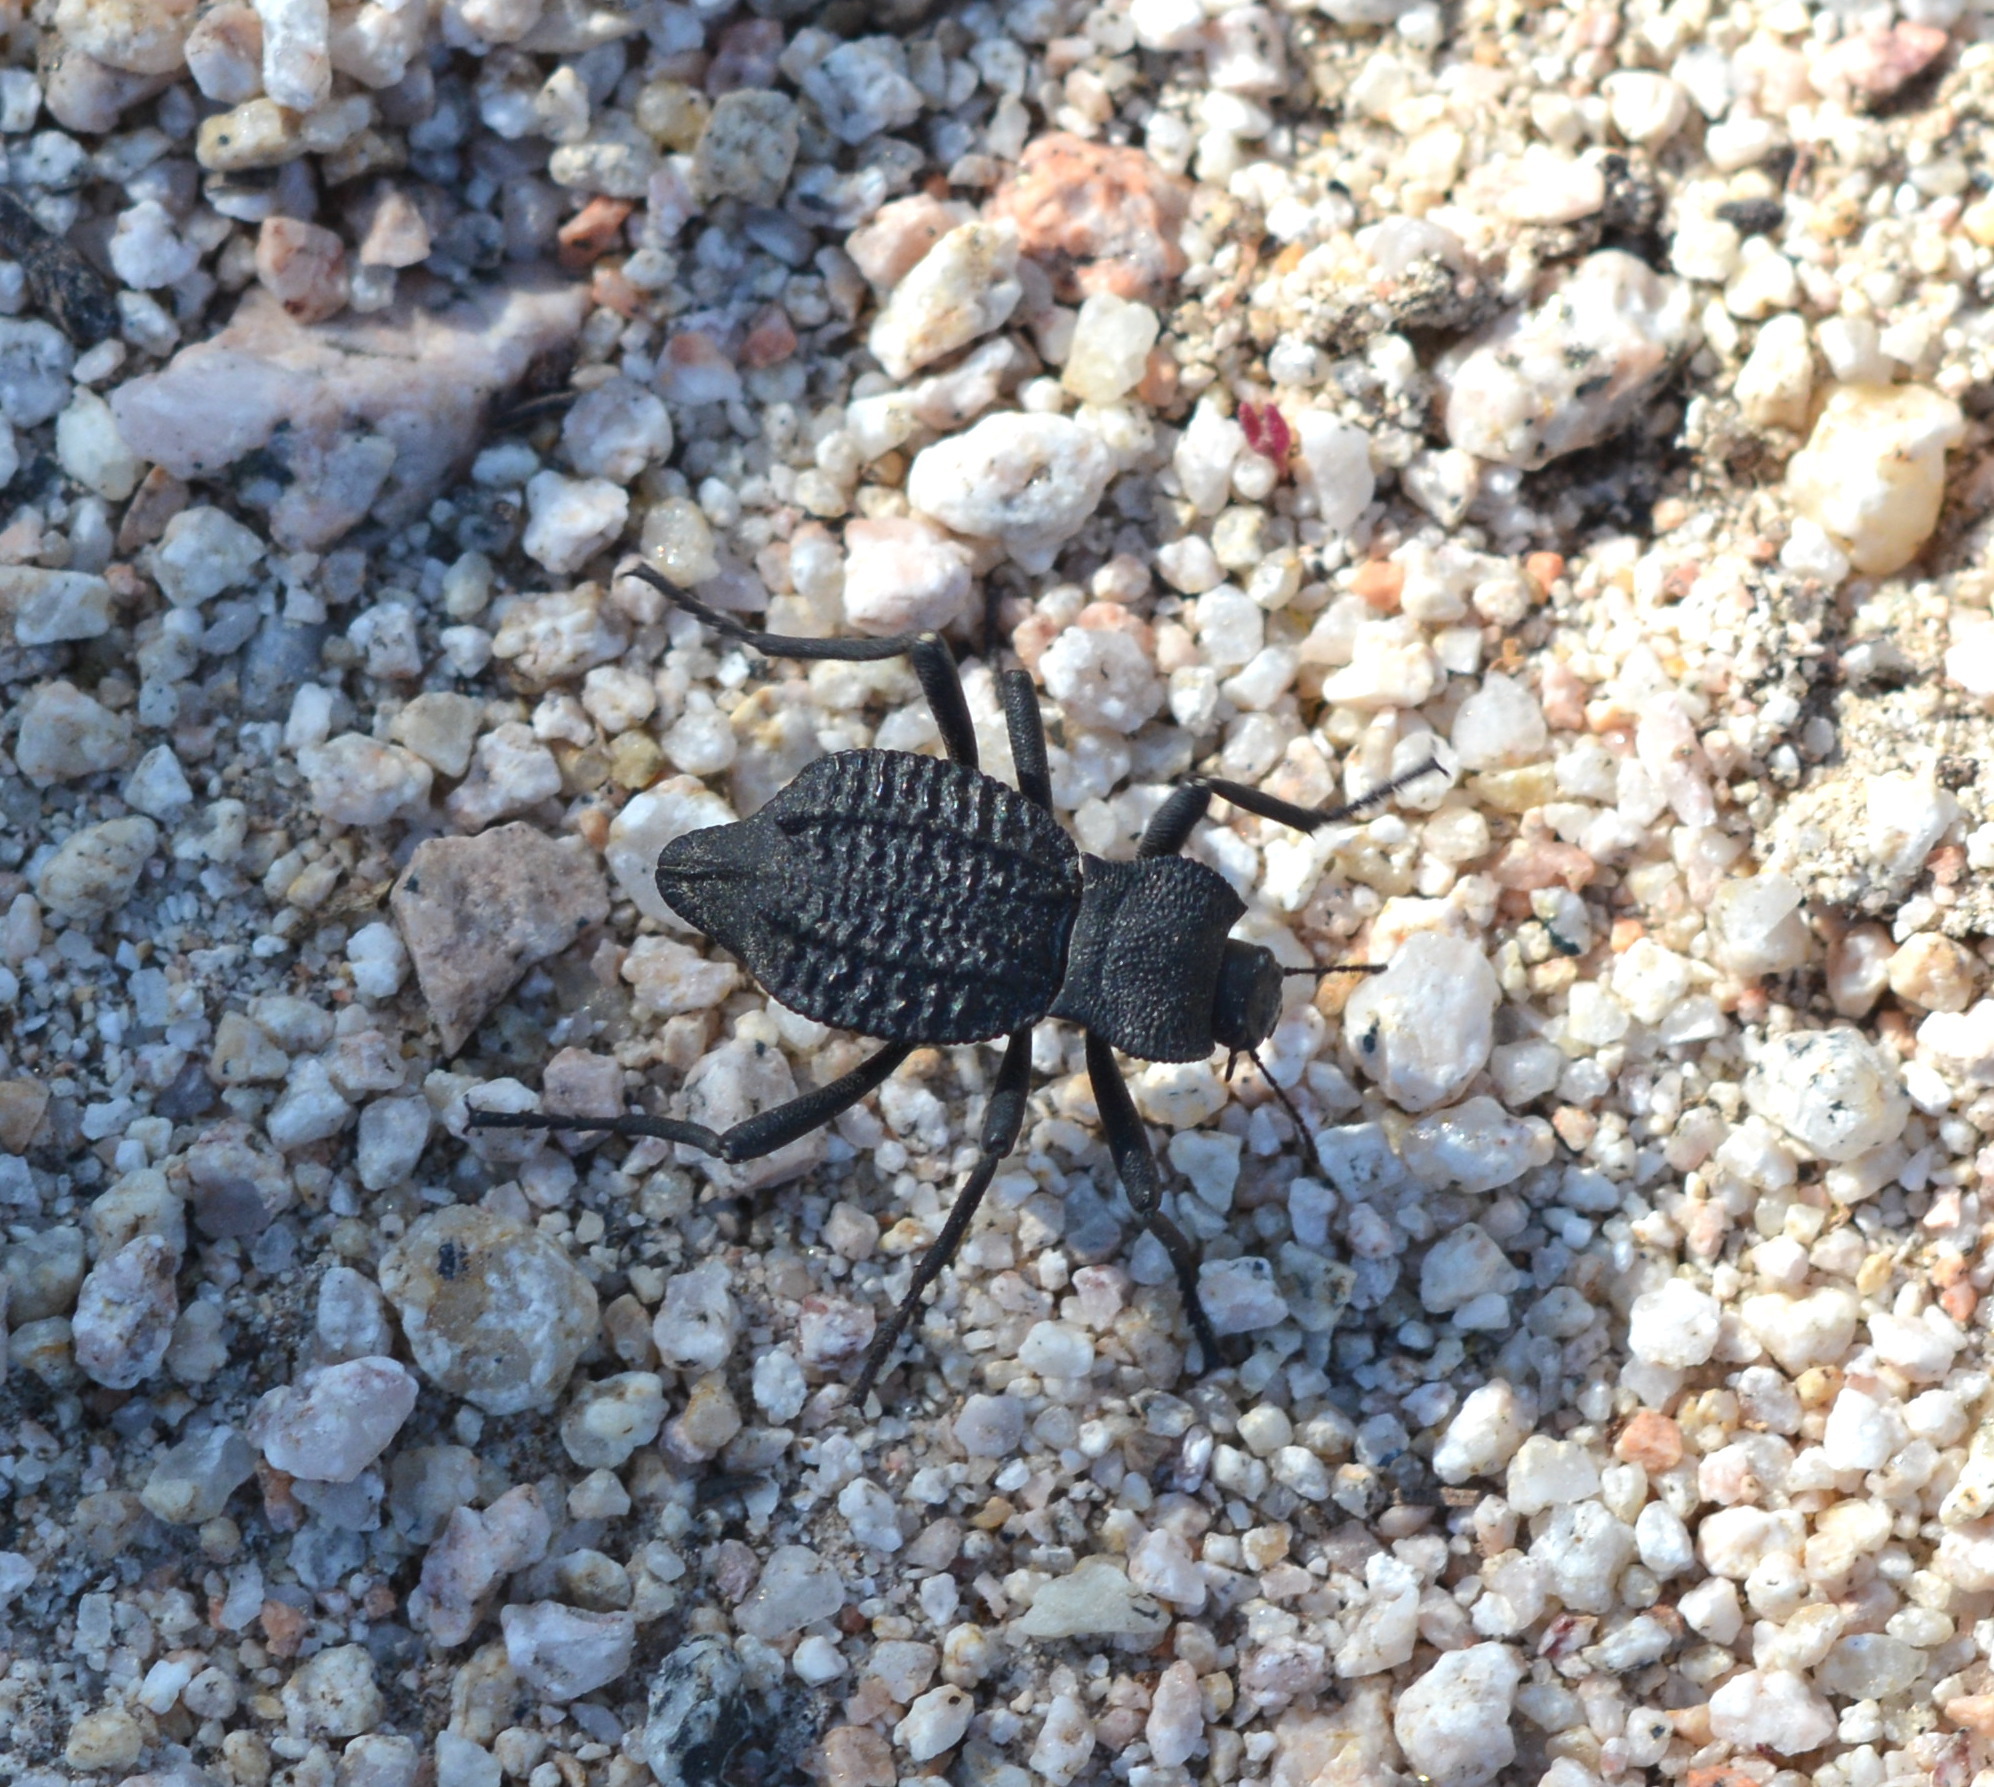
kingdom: Animalia
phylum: Arthropoda
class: Insecta
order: Coleoptera
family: Tenebrionidae
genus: Philolithus
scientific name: Philolithus aegrotus
